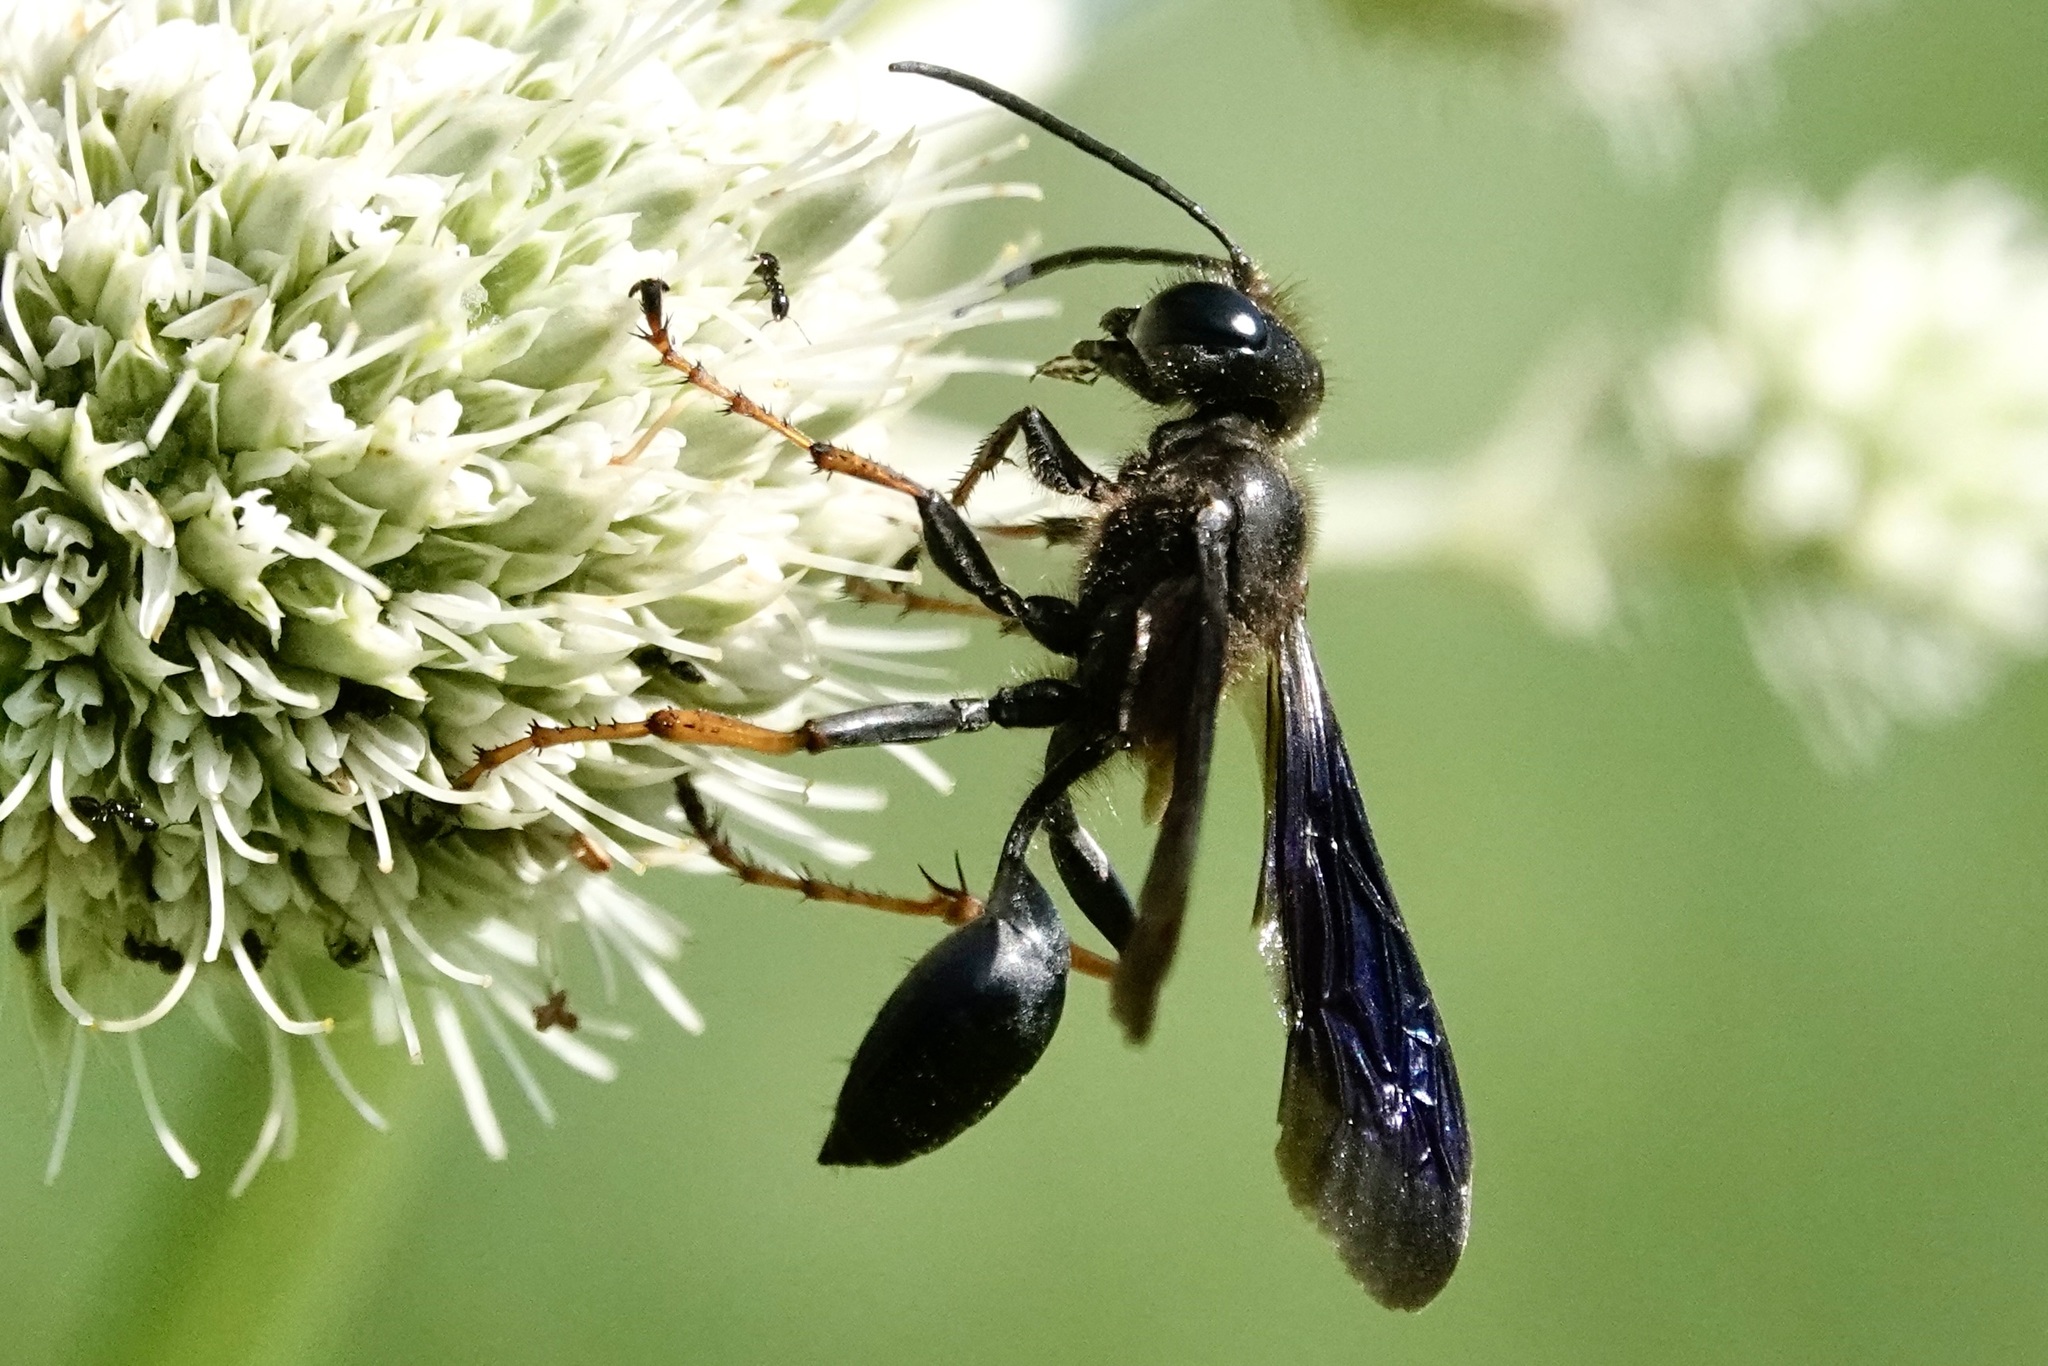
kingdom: Animalia
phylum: Arthropoda
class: Insecta
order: Hymenoptera
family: Sphecidae
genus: Isodontia
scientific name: Isodontia auripes
